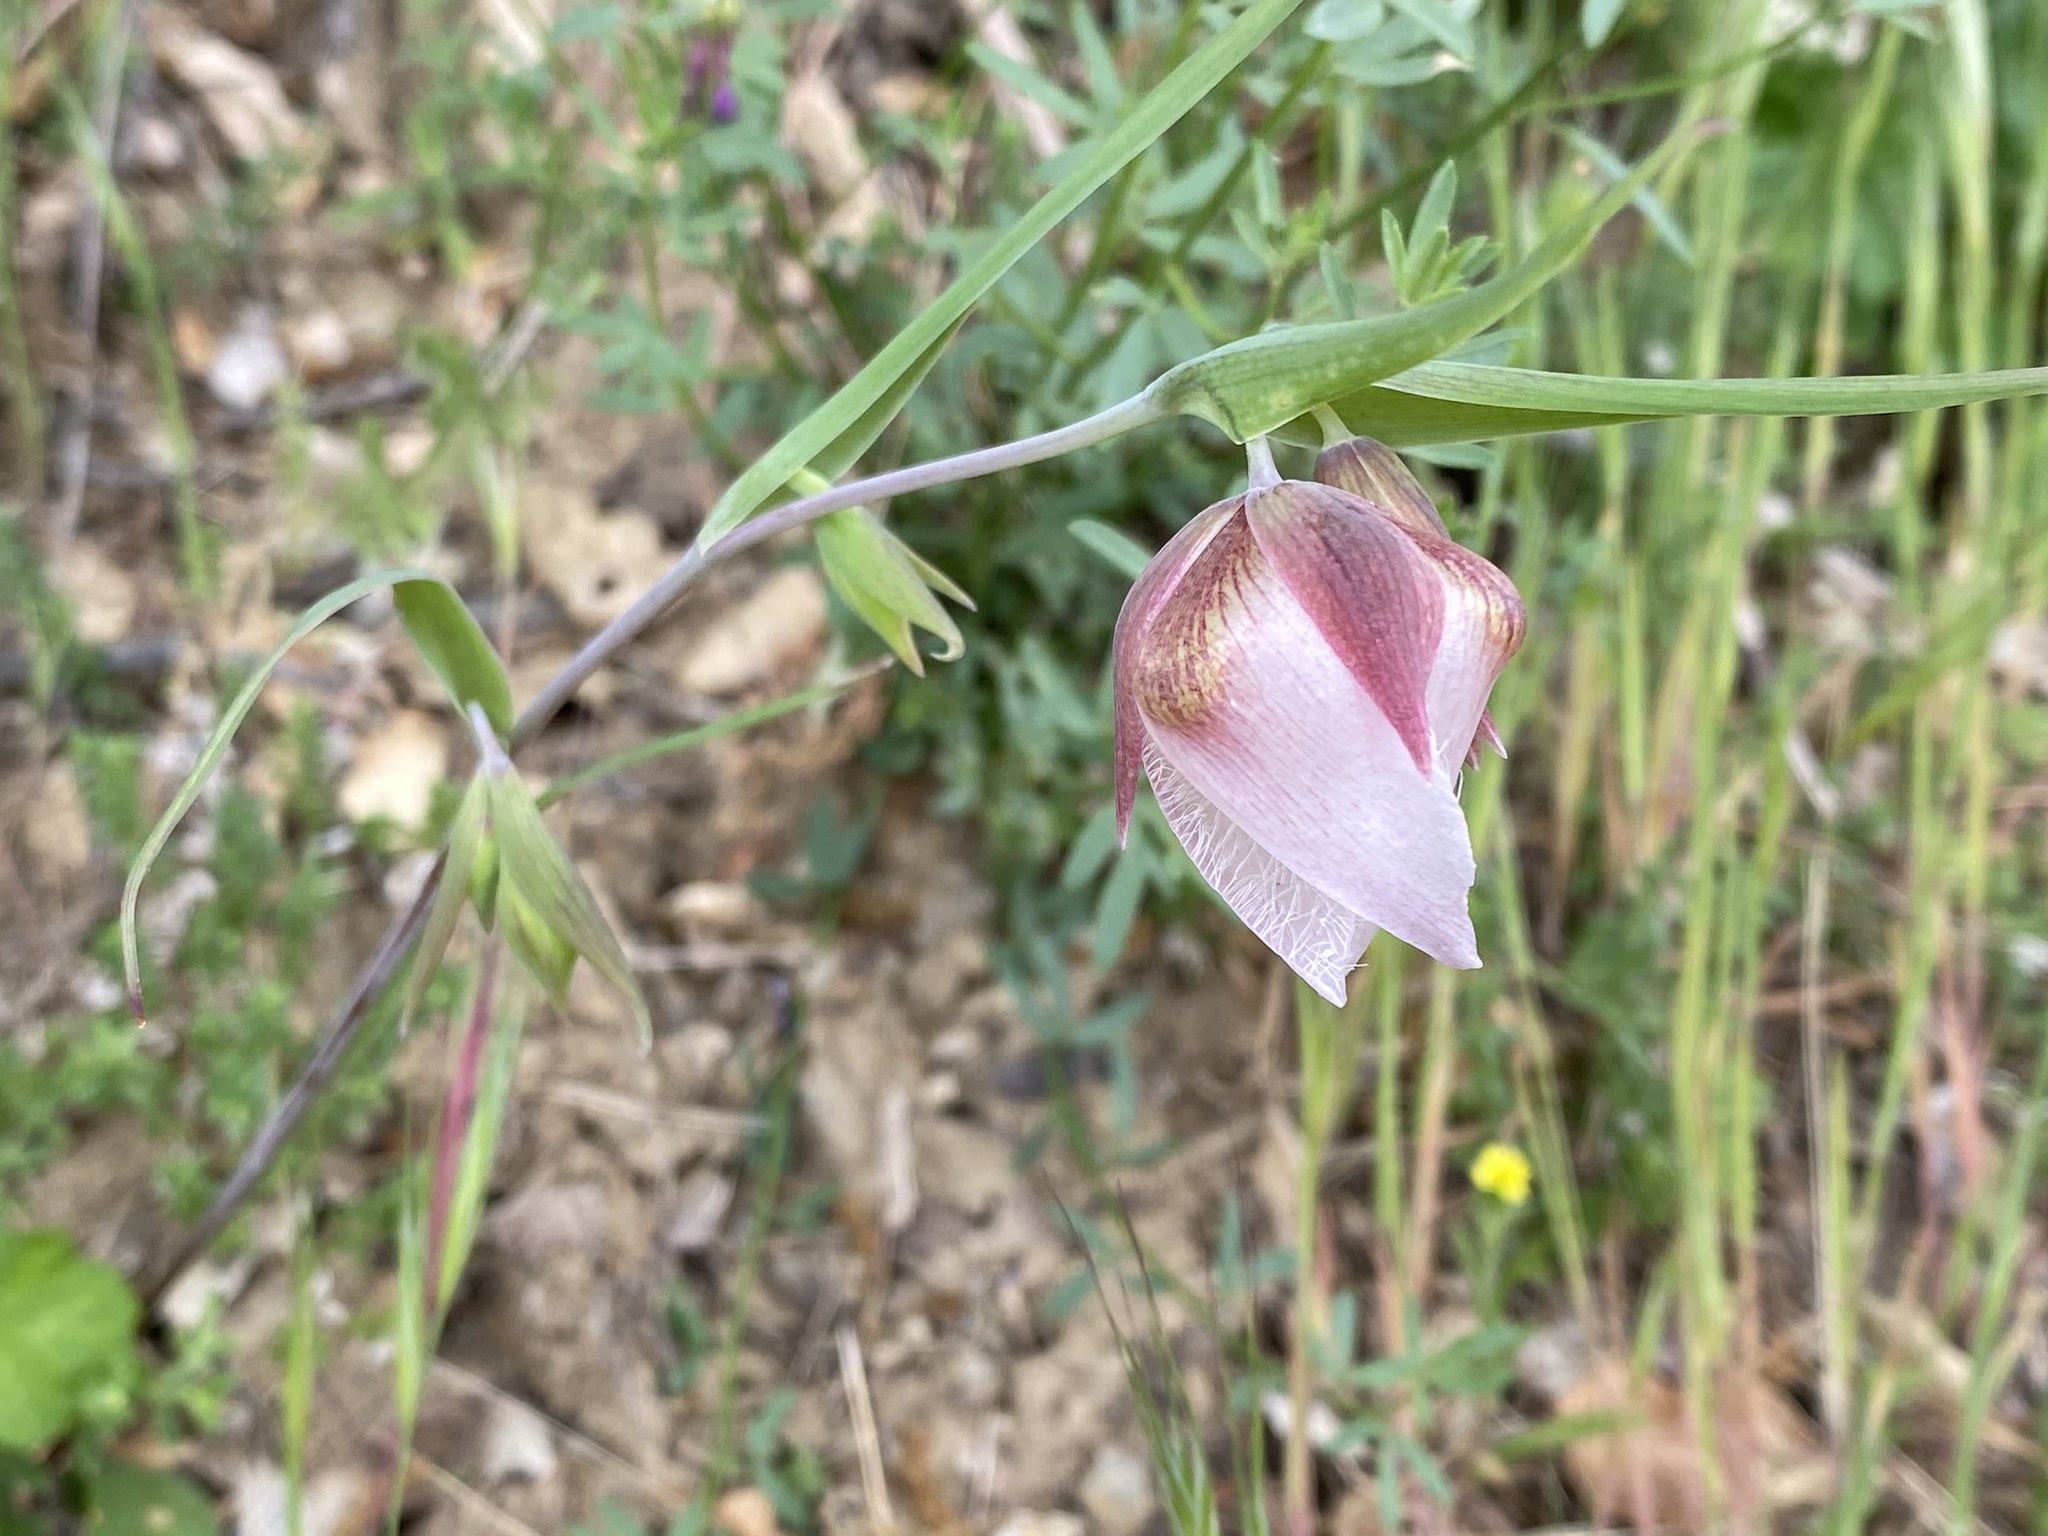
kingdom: Plantae
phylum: Tracheophyta
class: Liliopsida
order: Liliales
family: Liliaceae
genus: Calochortus
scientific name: Calochortus albus
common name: Fairy-lantern
